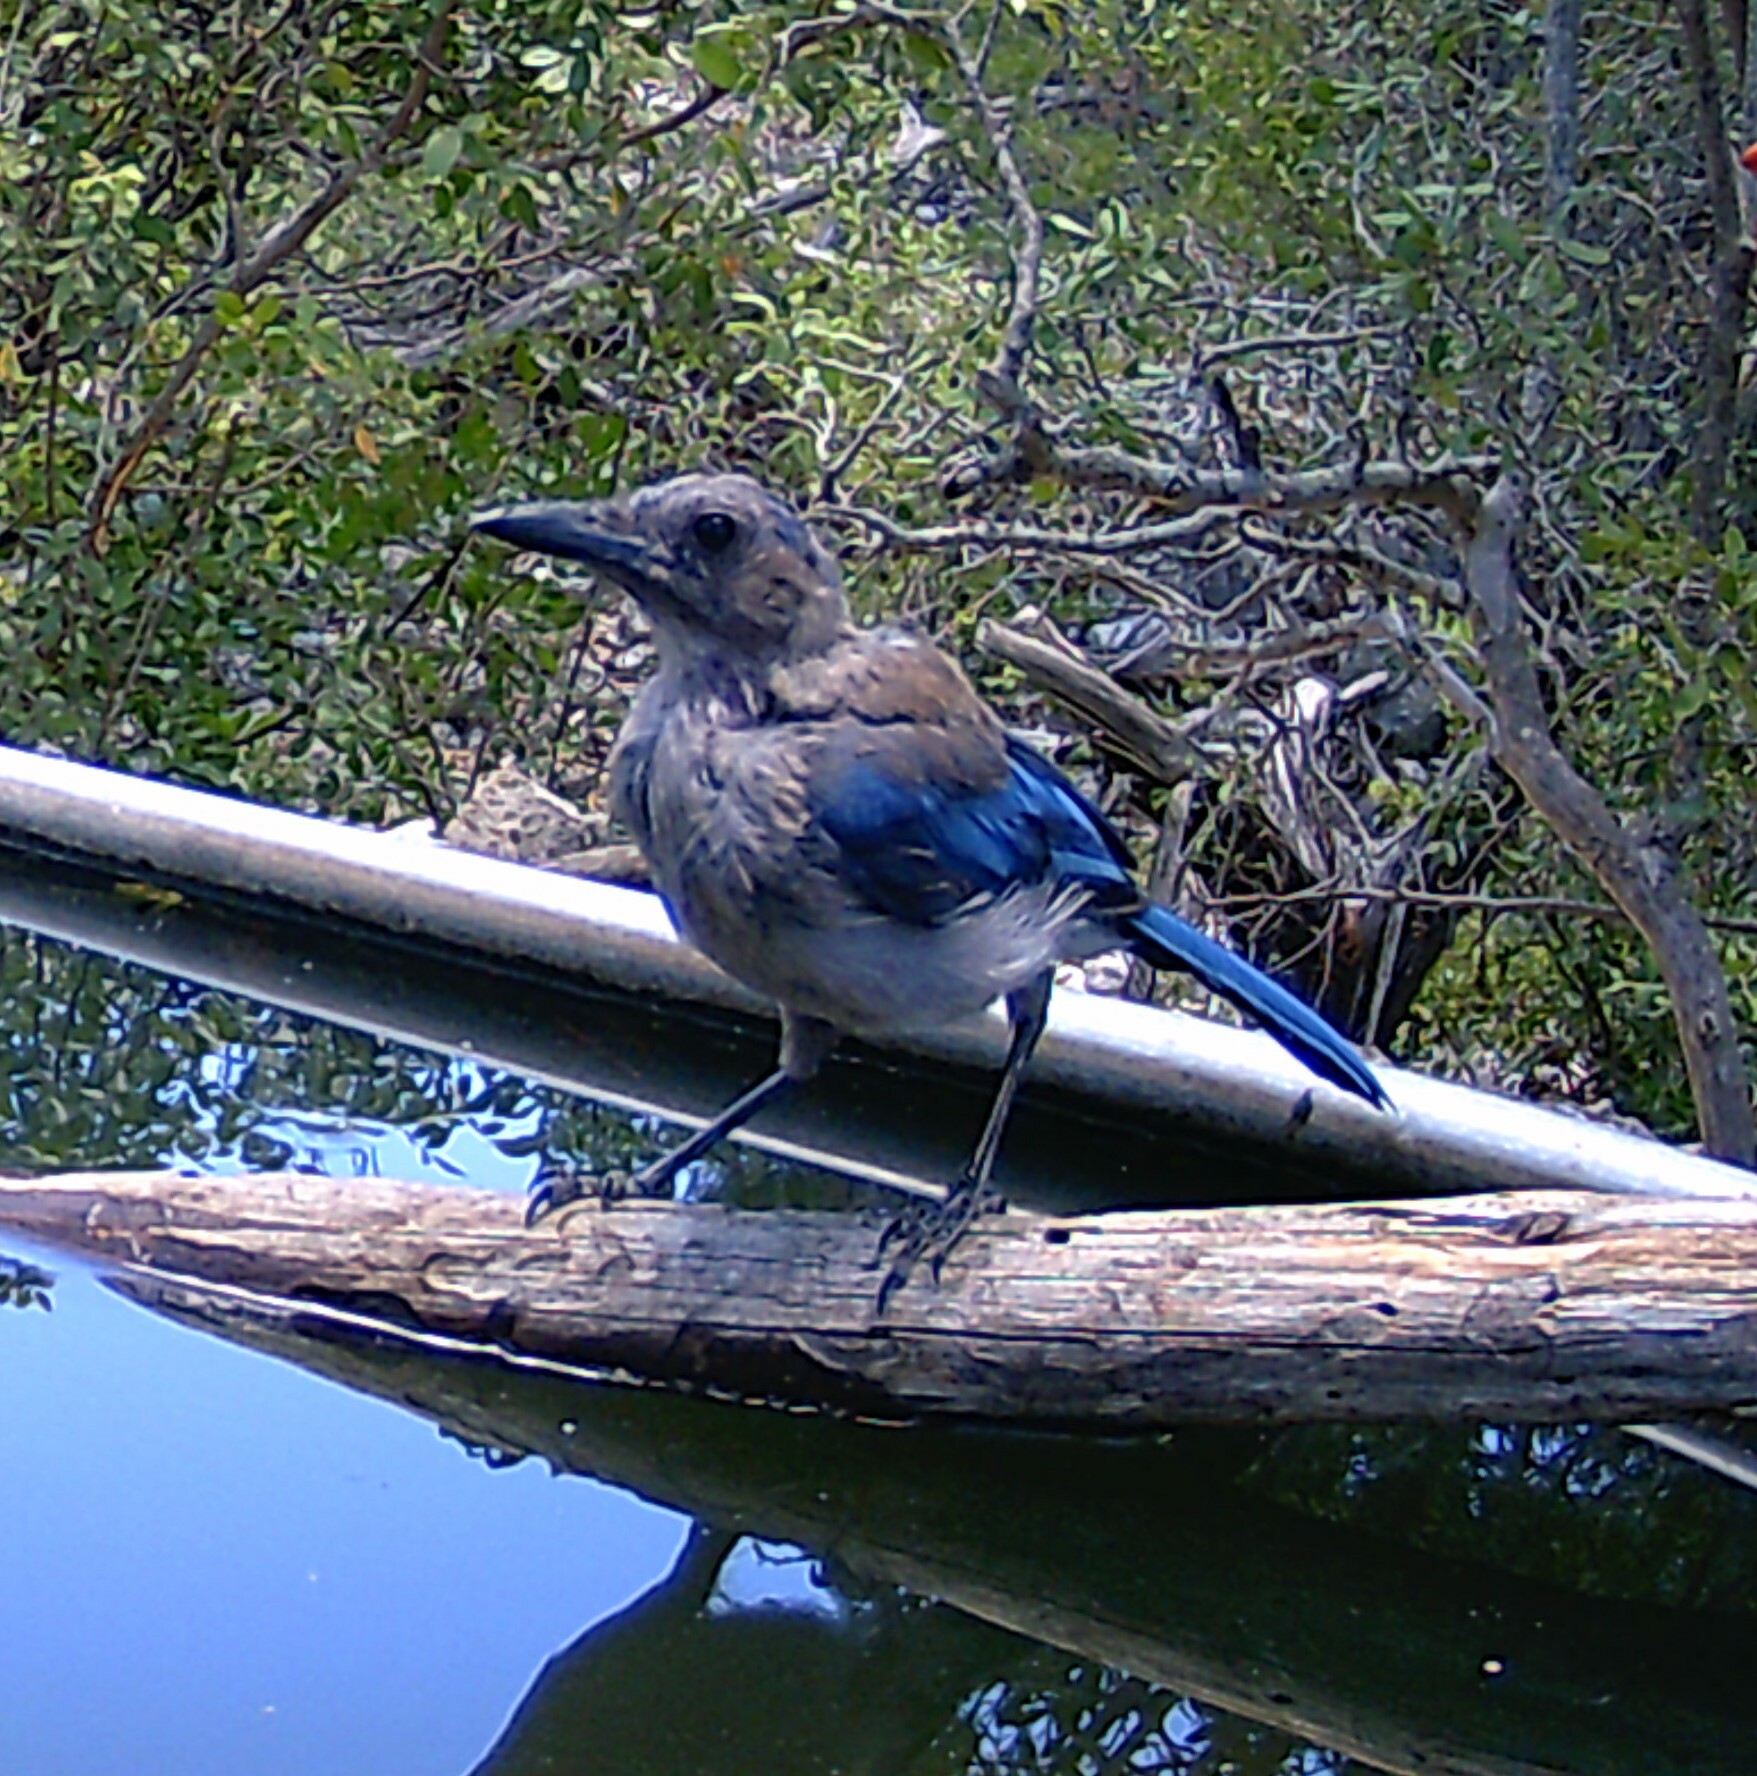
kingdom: Animalia
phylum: Chordata
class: Aves
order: Passeriformes
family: Corvidae
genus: Aphelocoma
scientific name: Aphelocoma woodhouseii
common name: Woodhouse's scrub-jay
